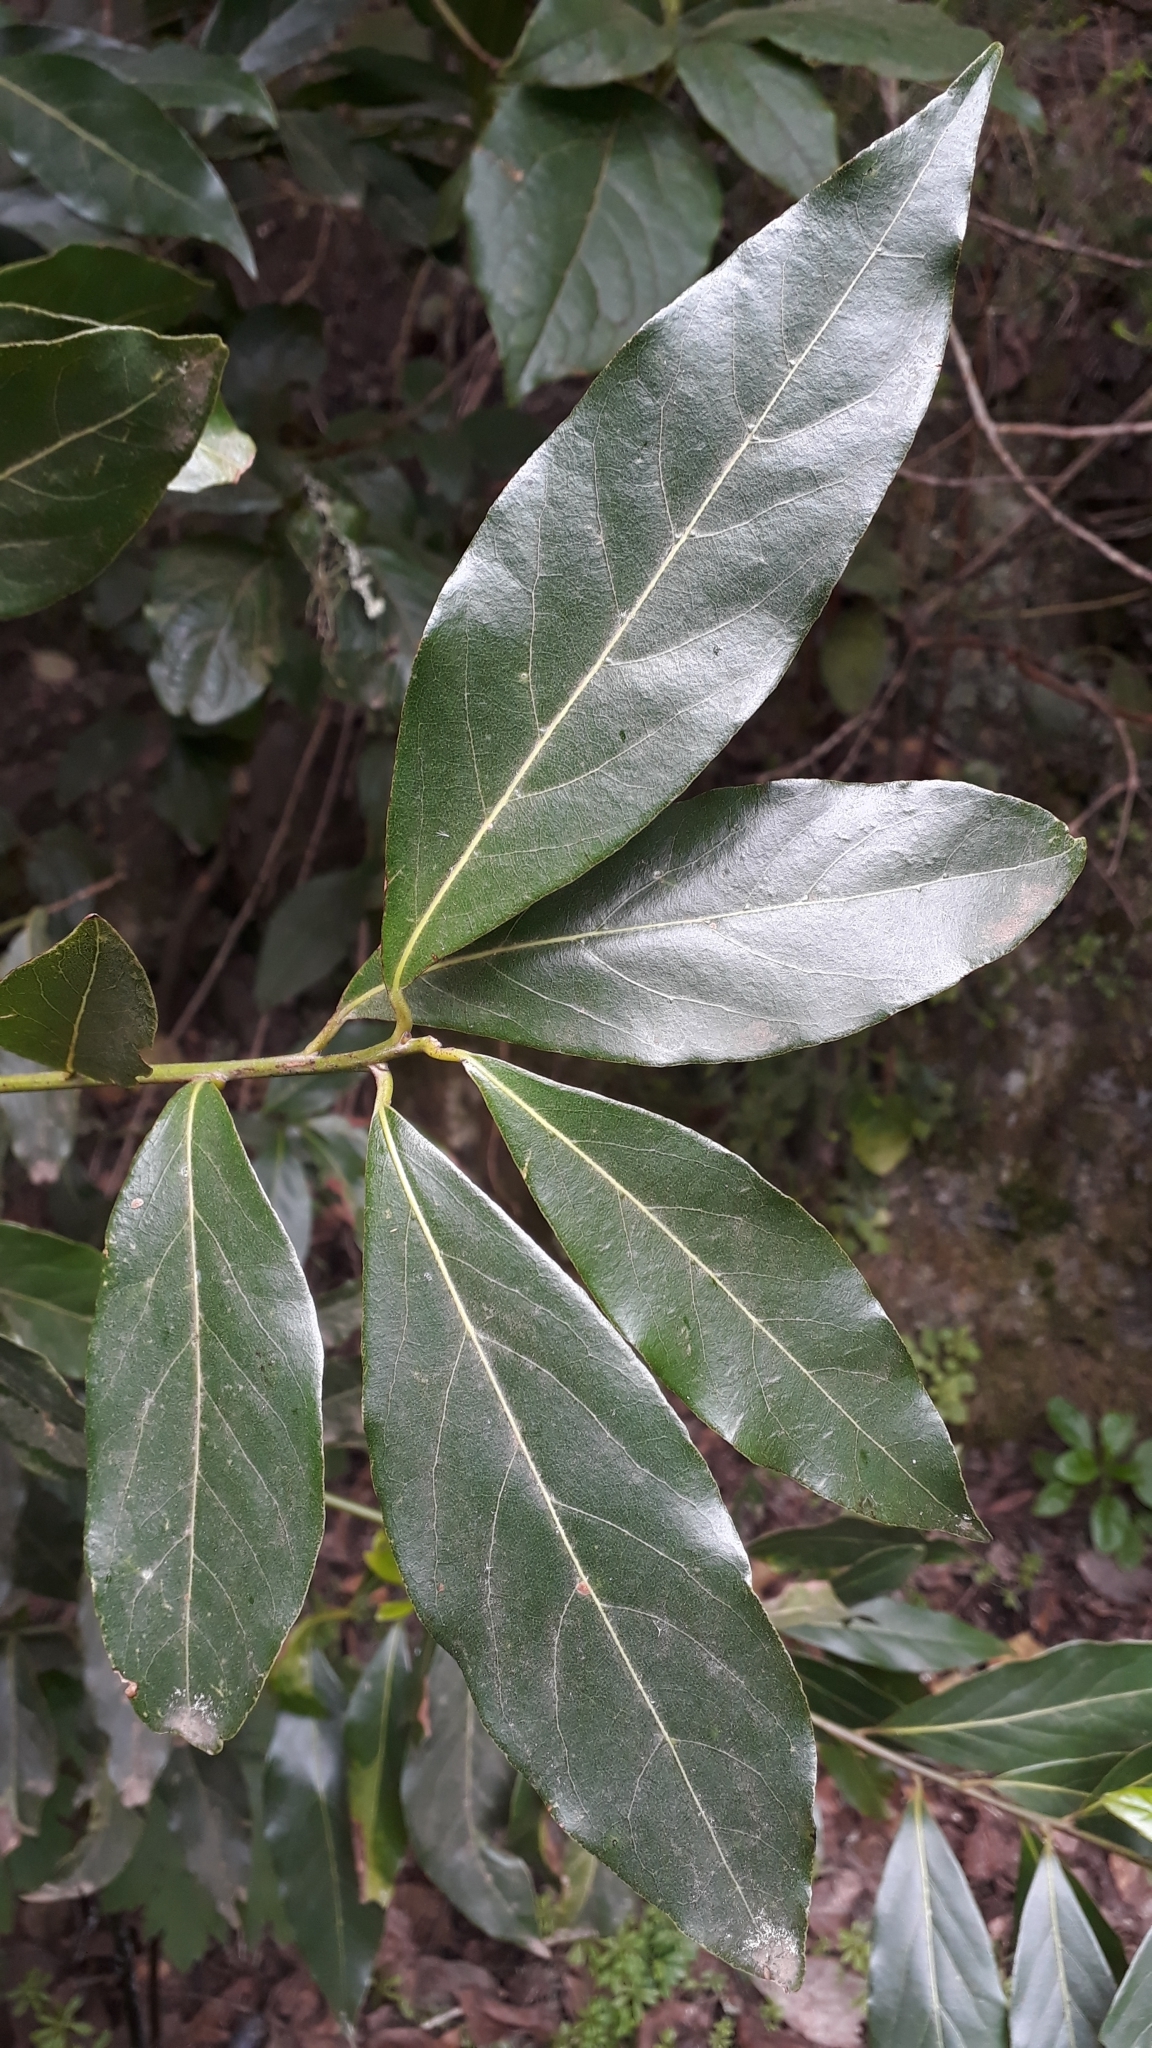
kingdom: Plantae
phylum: Tracheophyta
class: Magnoliopsida
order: Laurales
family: Lauraceae
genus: Laurus
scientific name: Laurus novocanariensis
